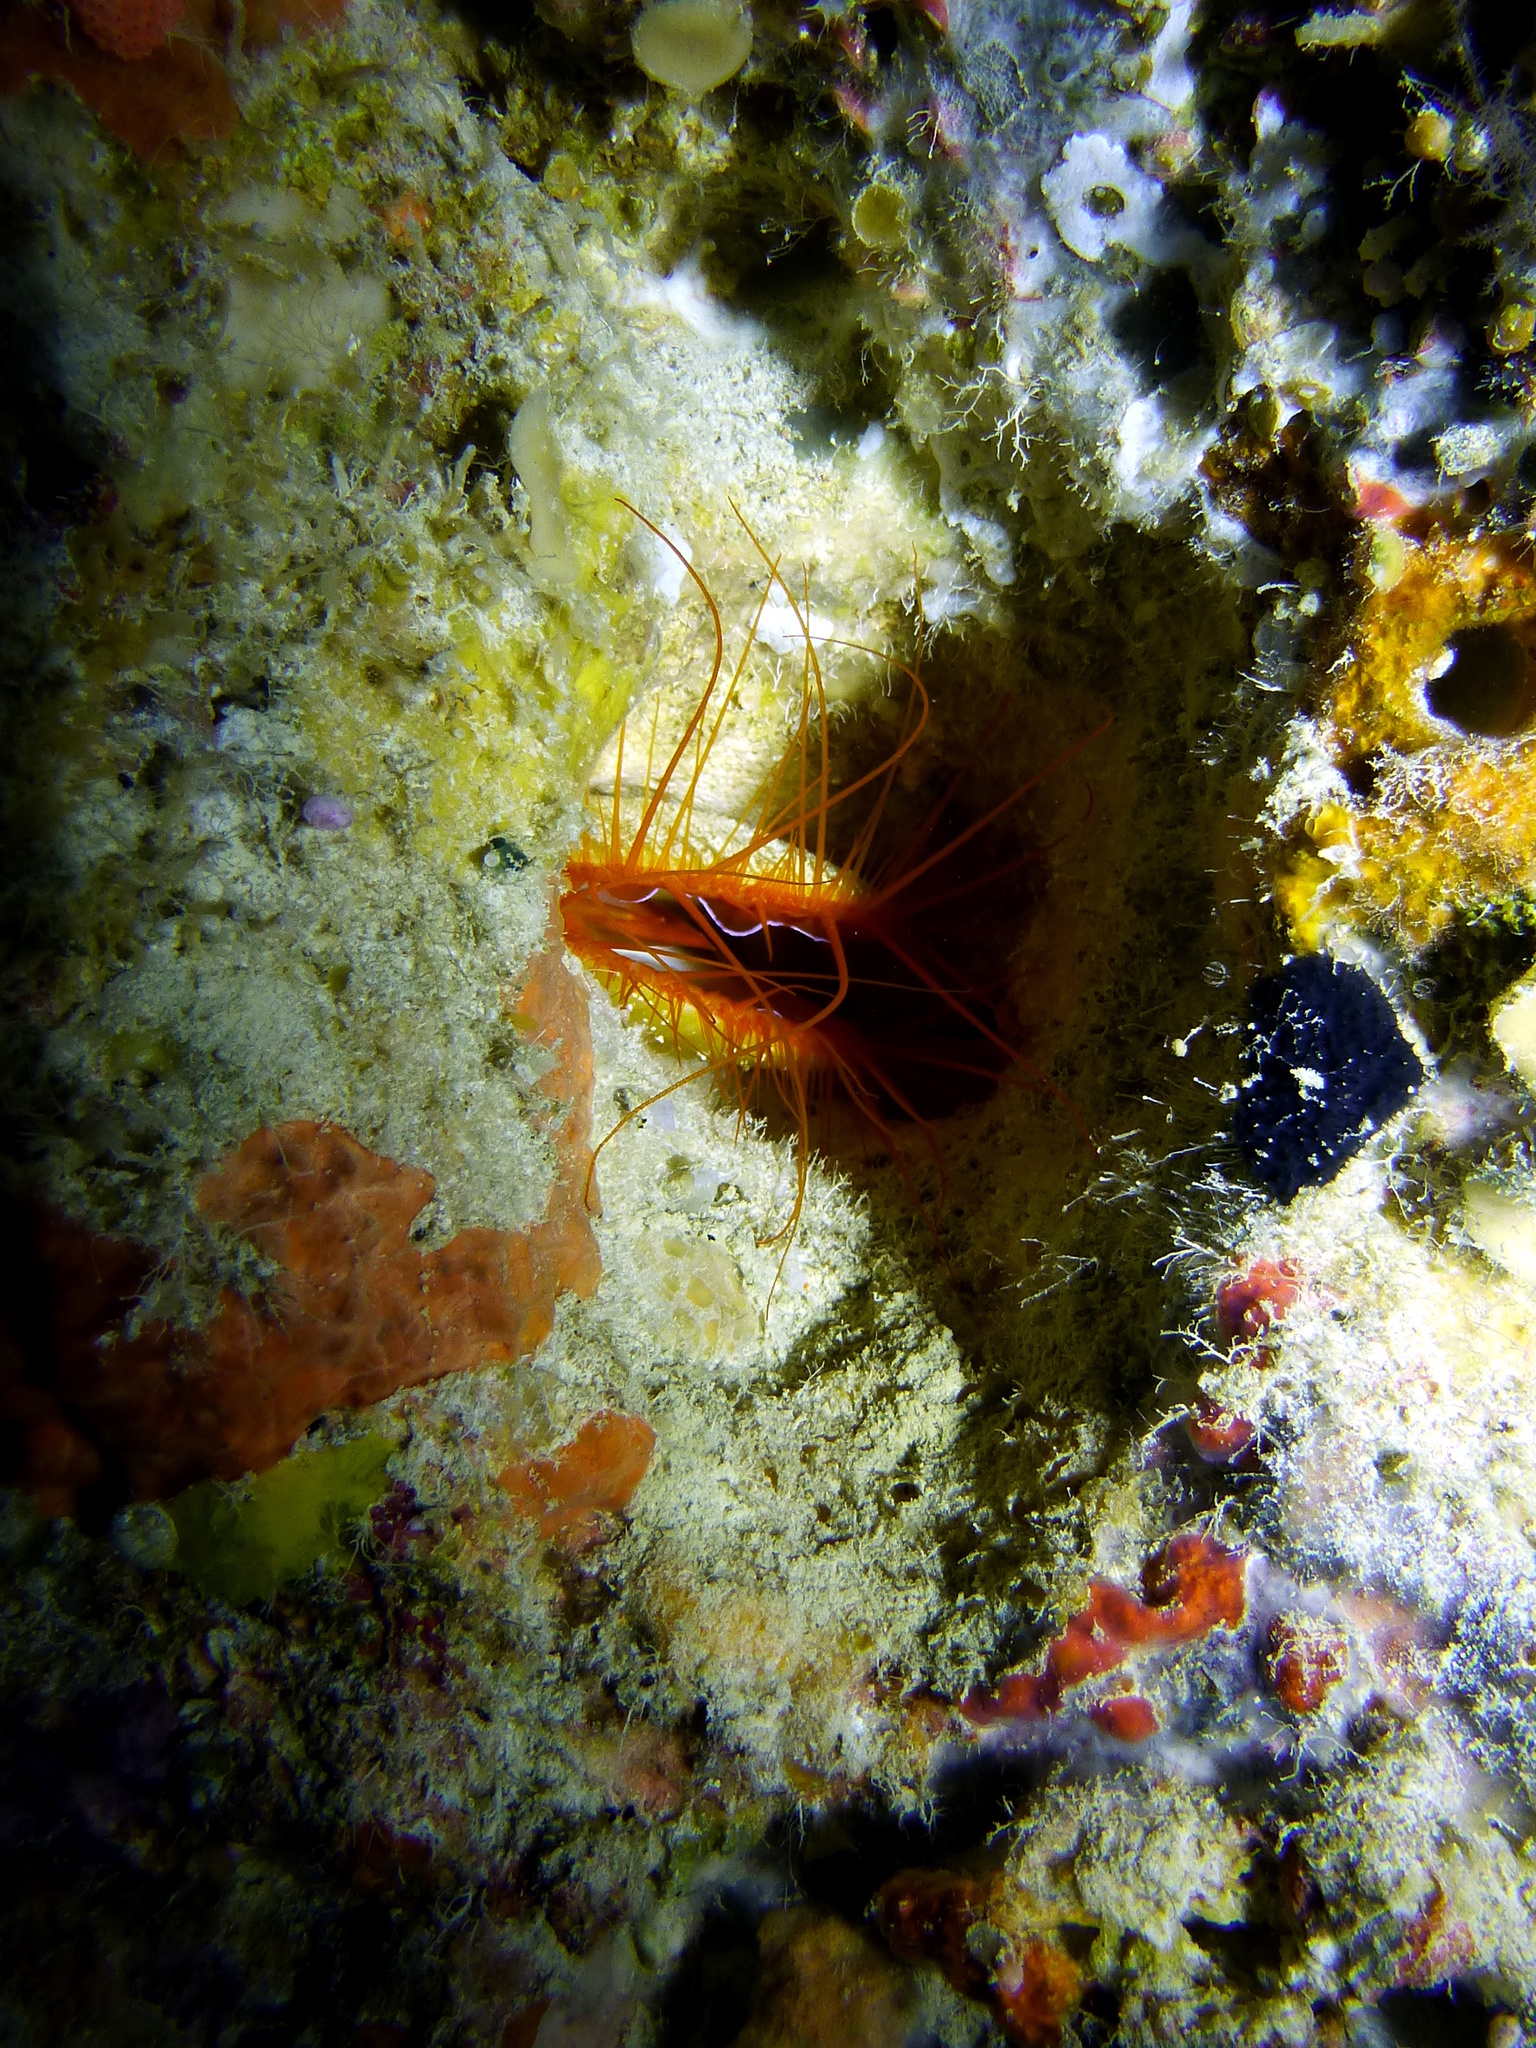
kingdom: Animalia
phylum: Mollusca
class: Bivalvia
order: Limida
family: Limidae
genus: Ctenoides
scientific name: Ctenoides ales
